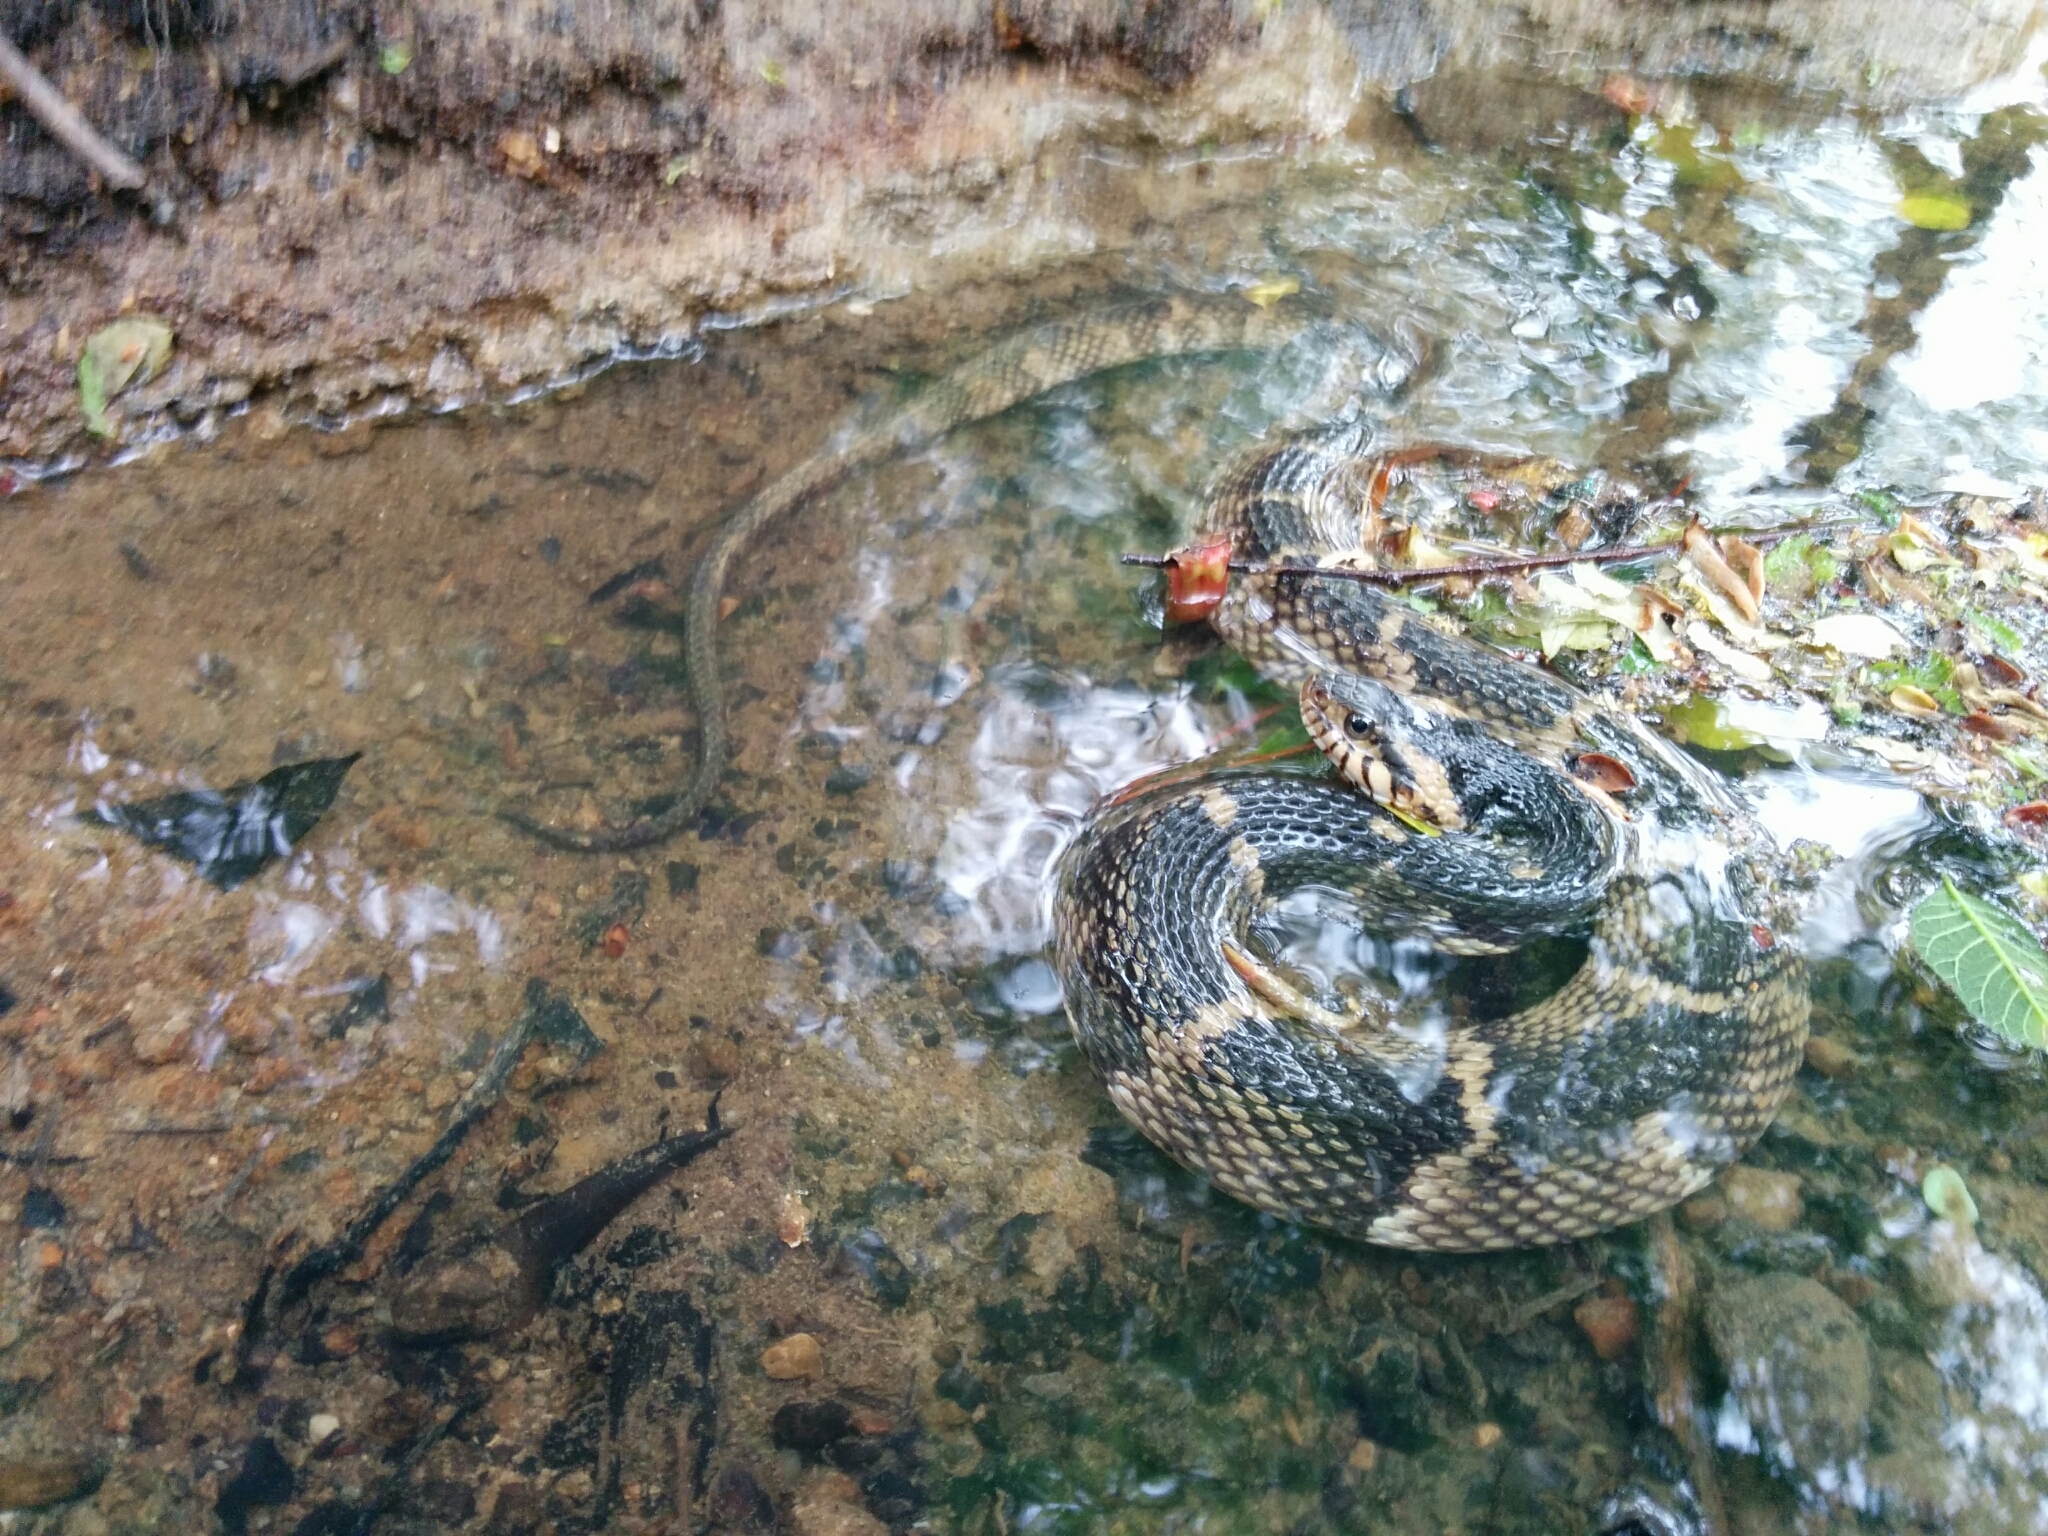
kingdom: Animalia
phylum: Chordata
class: Squamata
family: Colubridae
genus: Nerodia
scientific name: Nerodia fasciata
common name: Southern water snake
